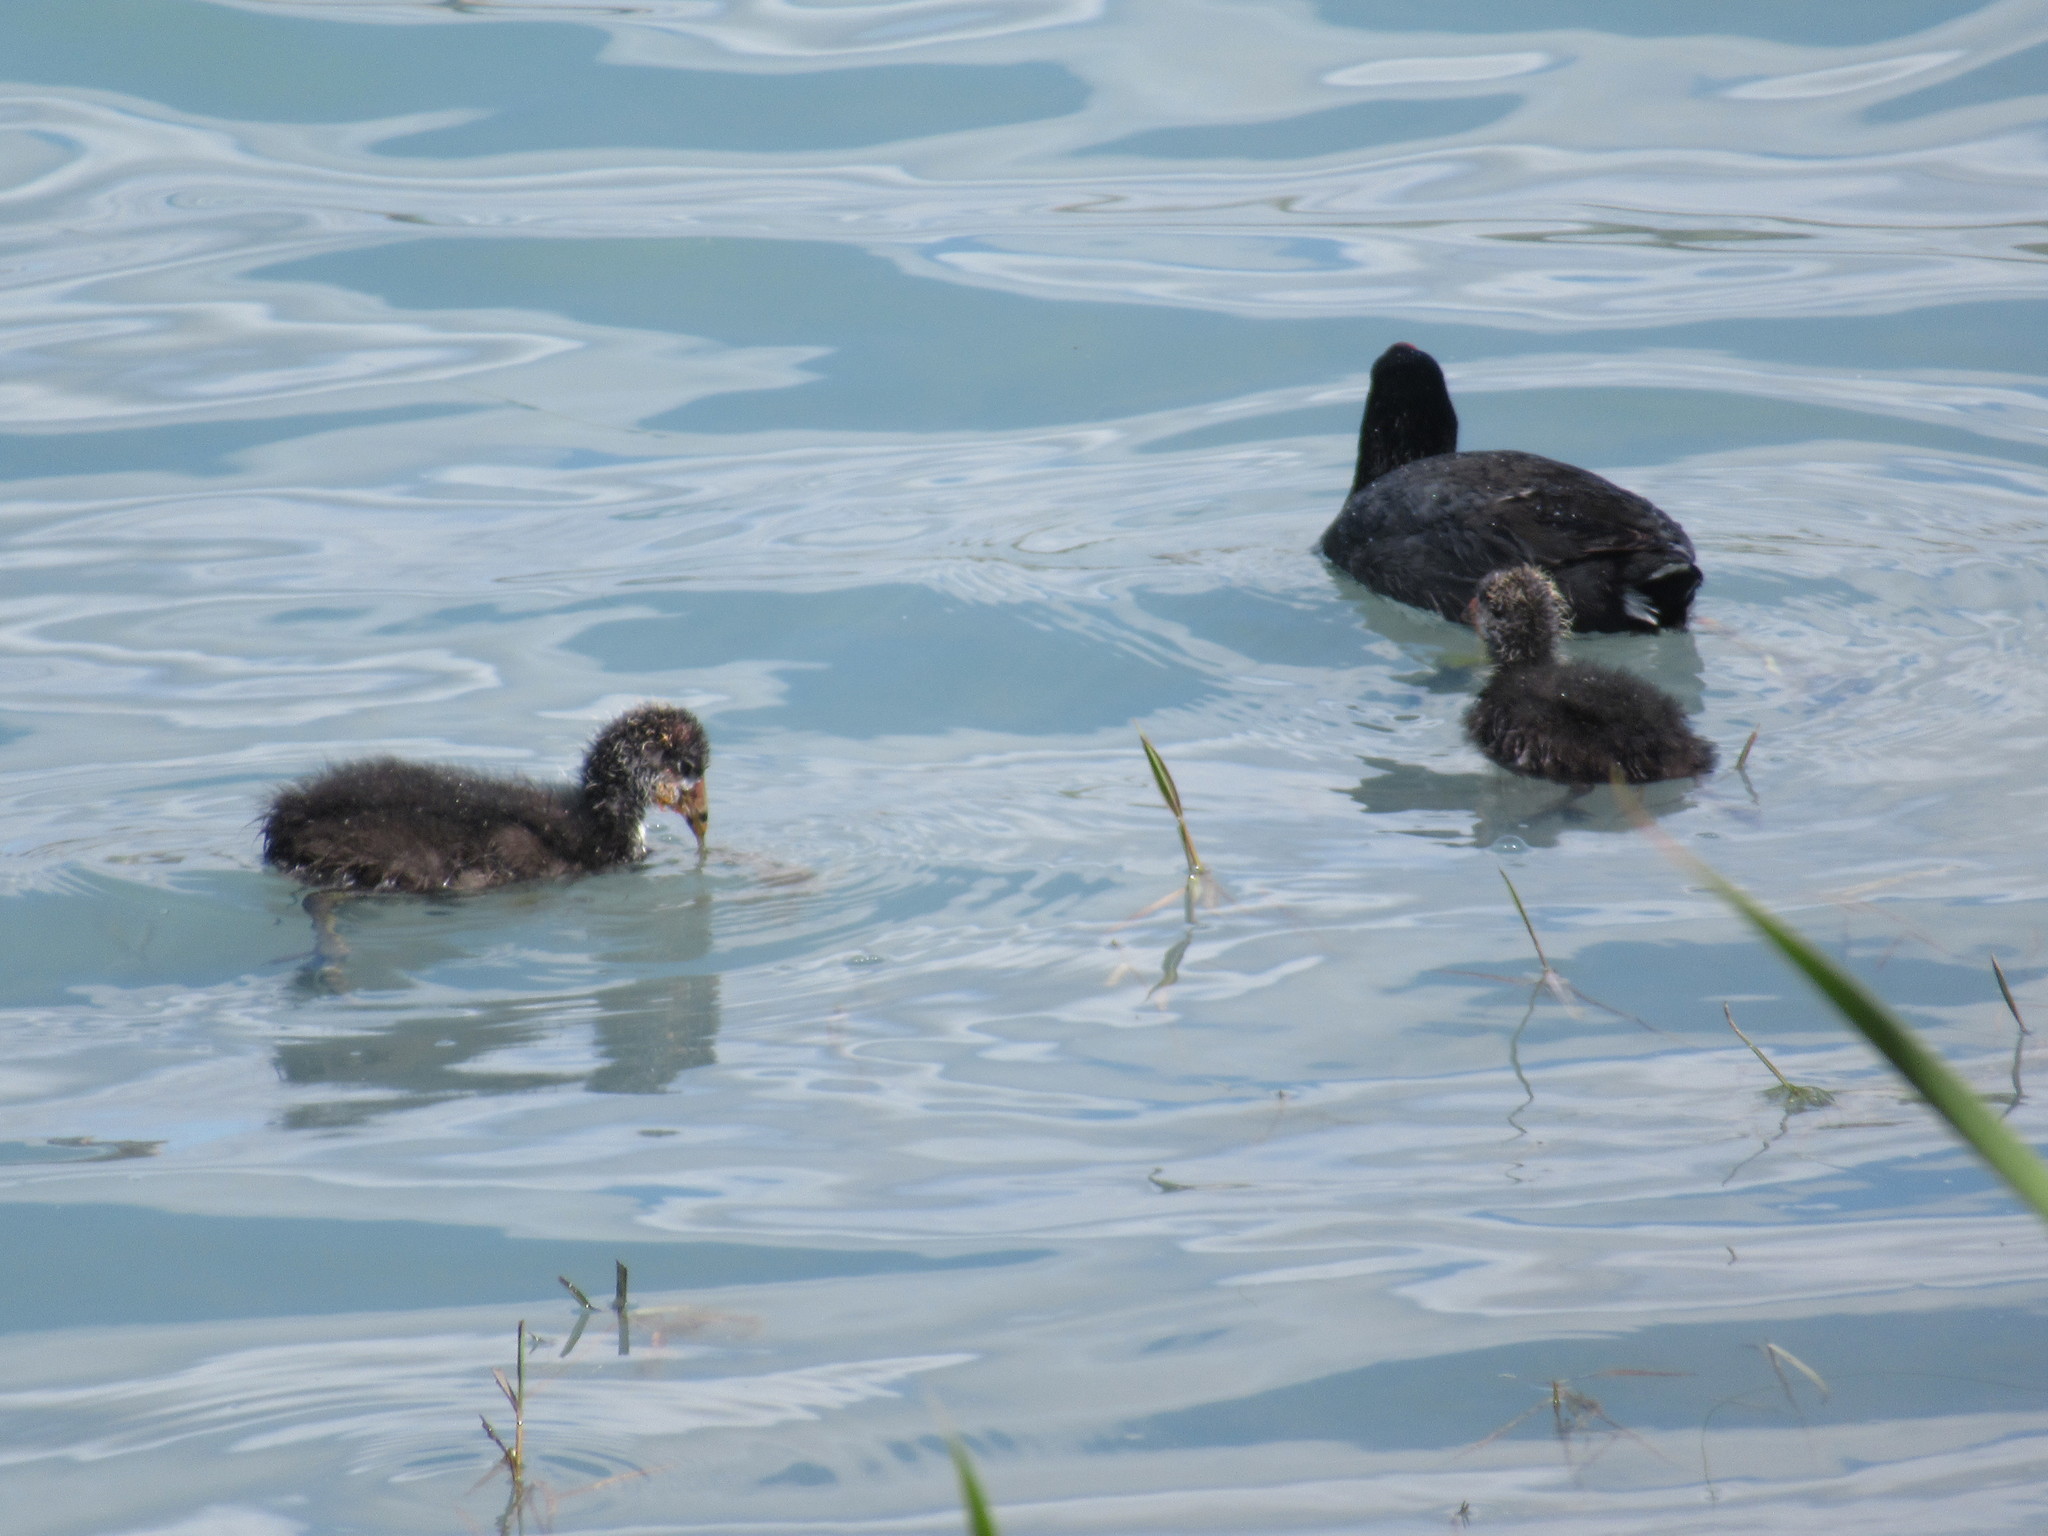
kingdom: Animalia
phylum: Chordata
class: Aves
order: Gruiformes
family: Rallidae
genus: Fulica
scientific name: Fulica americana
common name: American coot
